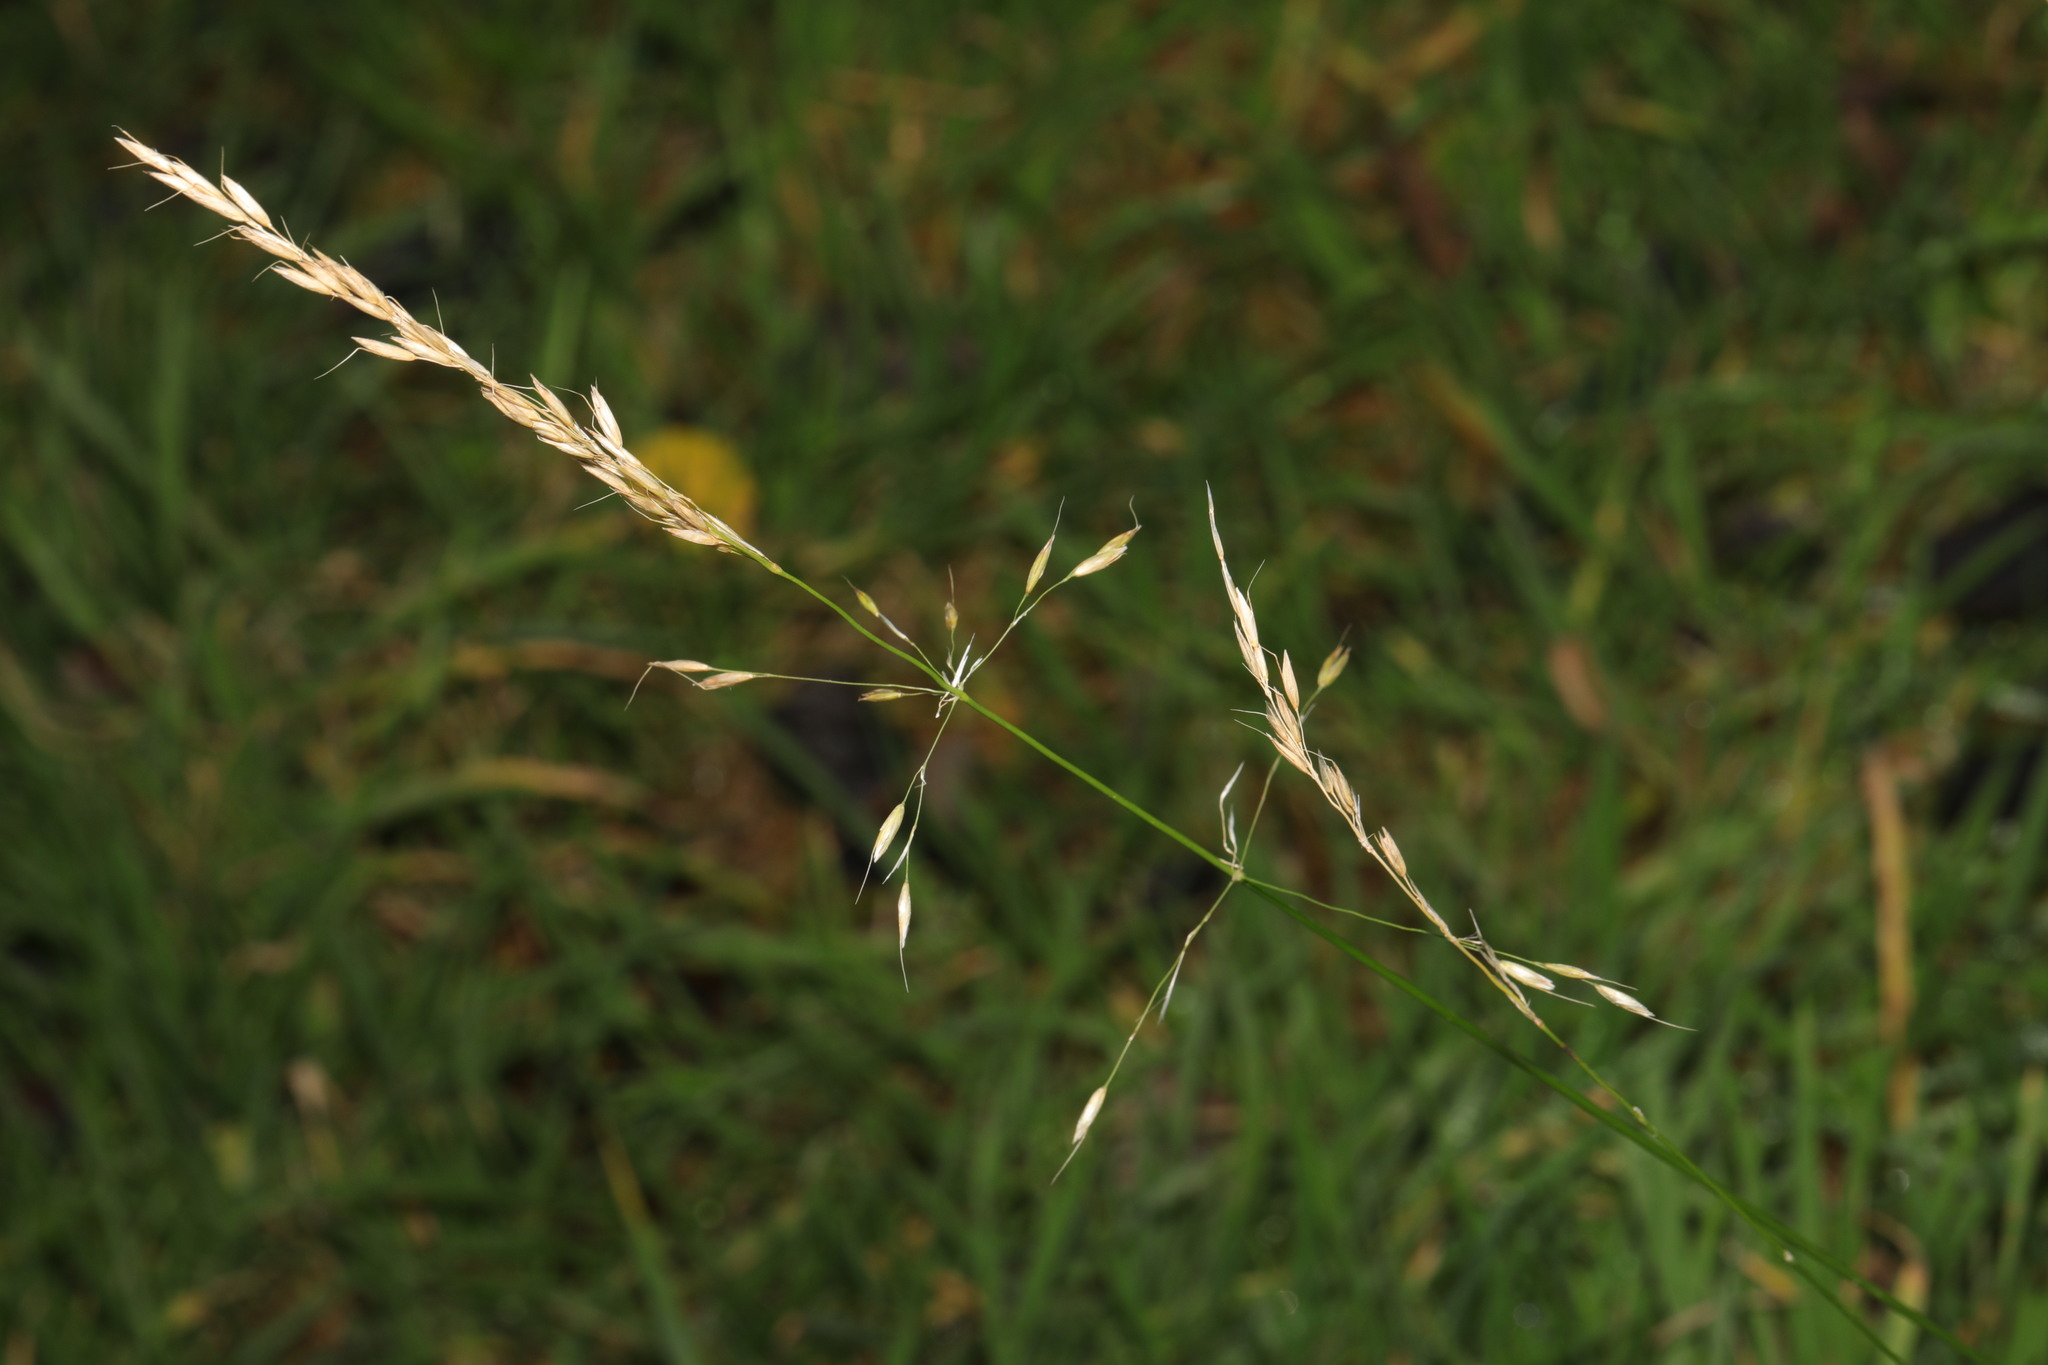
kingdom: Plantae
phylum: Tracheophyta
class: Liliopsida
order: Poales
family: Poaceae
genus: Arrhenatherum
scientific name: Arrhenatherum elatius
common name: Tall oatgrass
